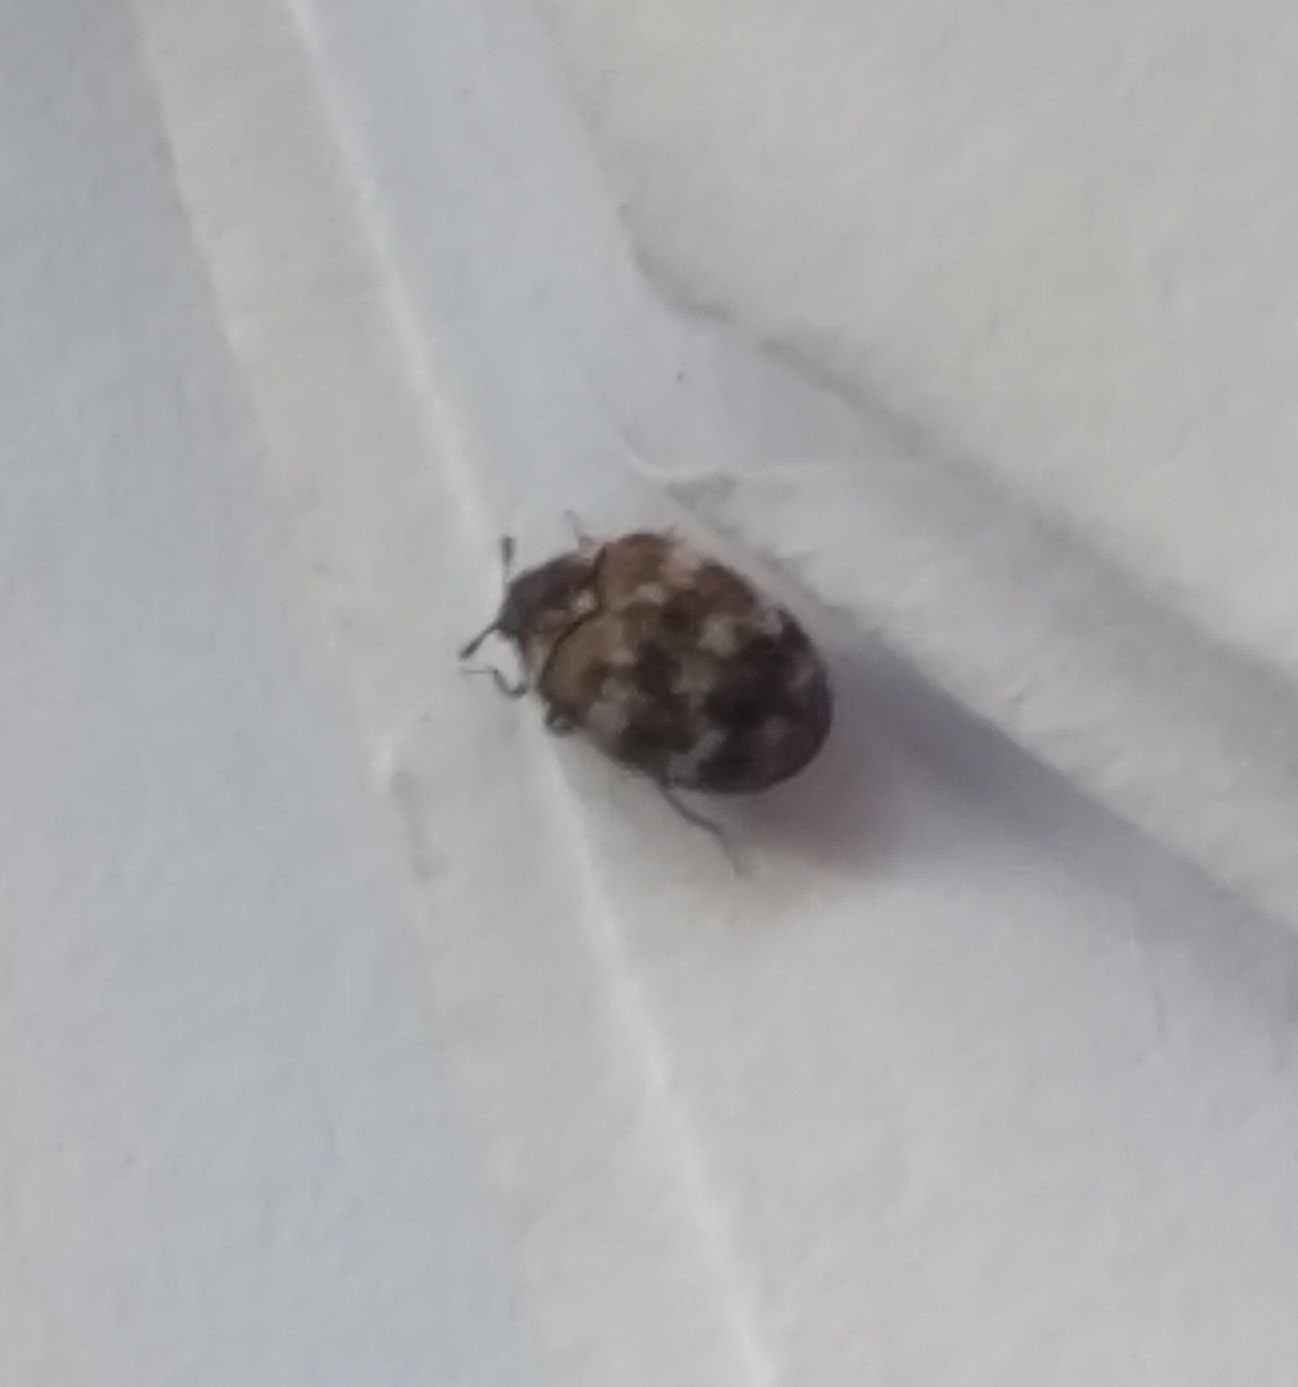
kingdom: Animalia
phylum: Arthropoda
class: Insecta
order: Coleoptera
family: Dermestidae
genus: Anthrenus
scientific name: Anthrenus verbasci
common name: Varied carpet beetle
